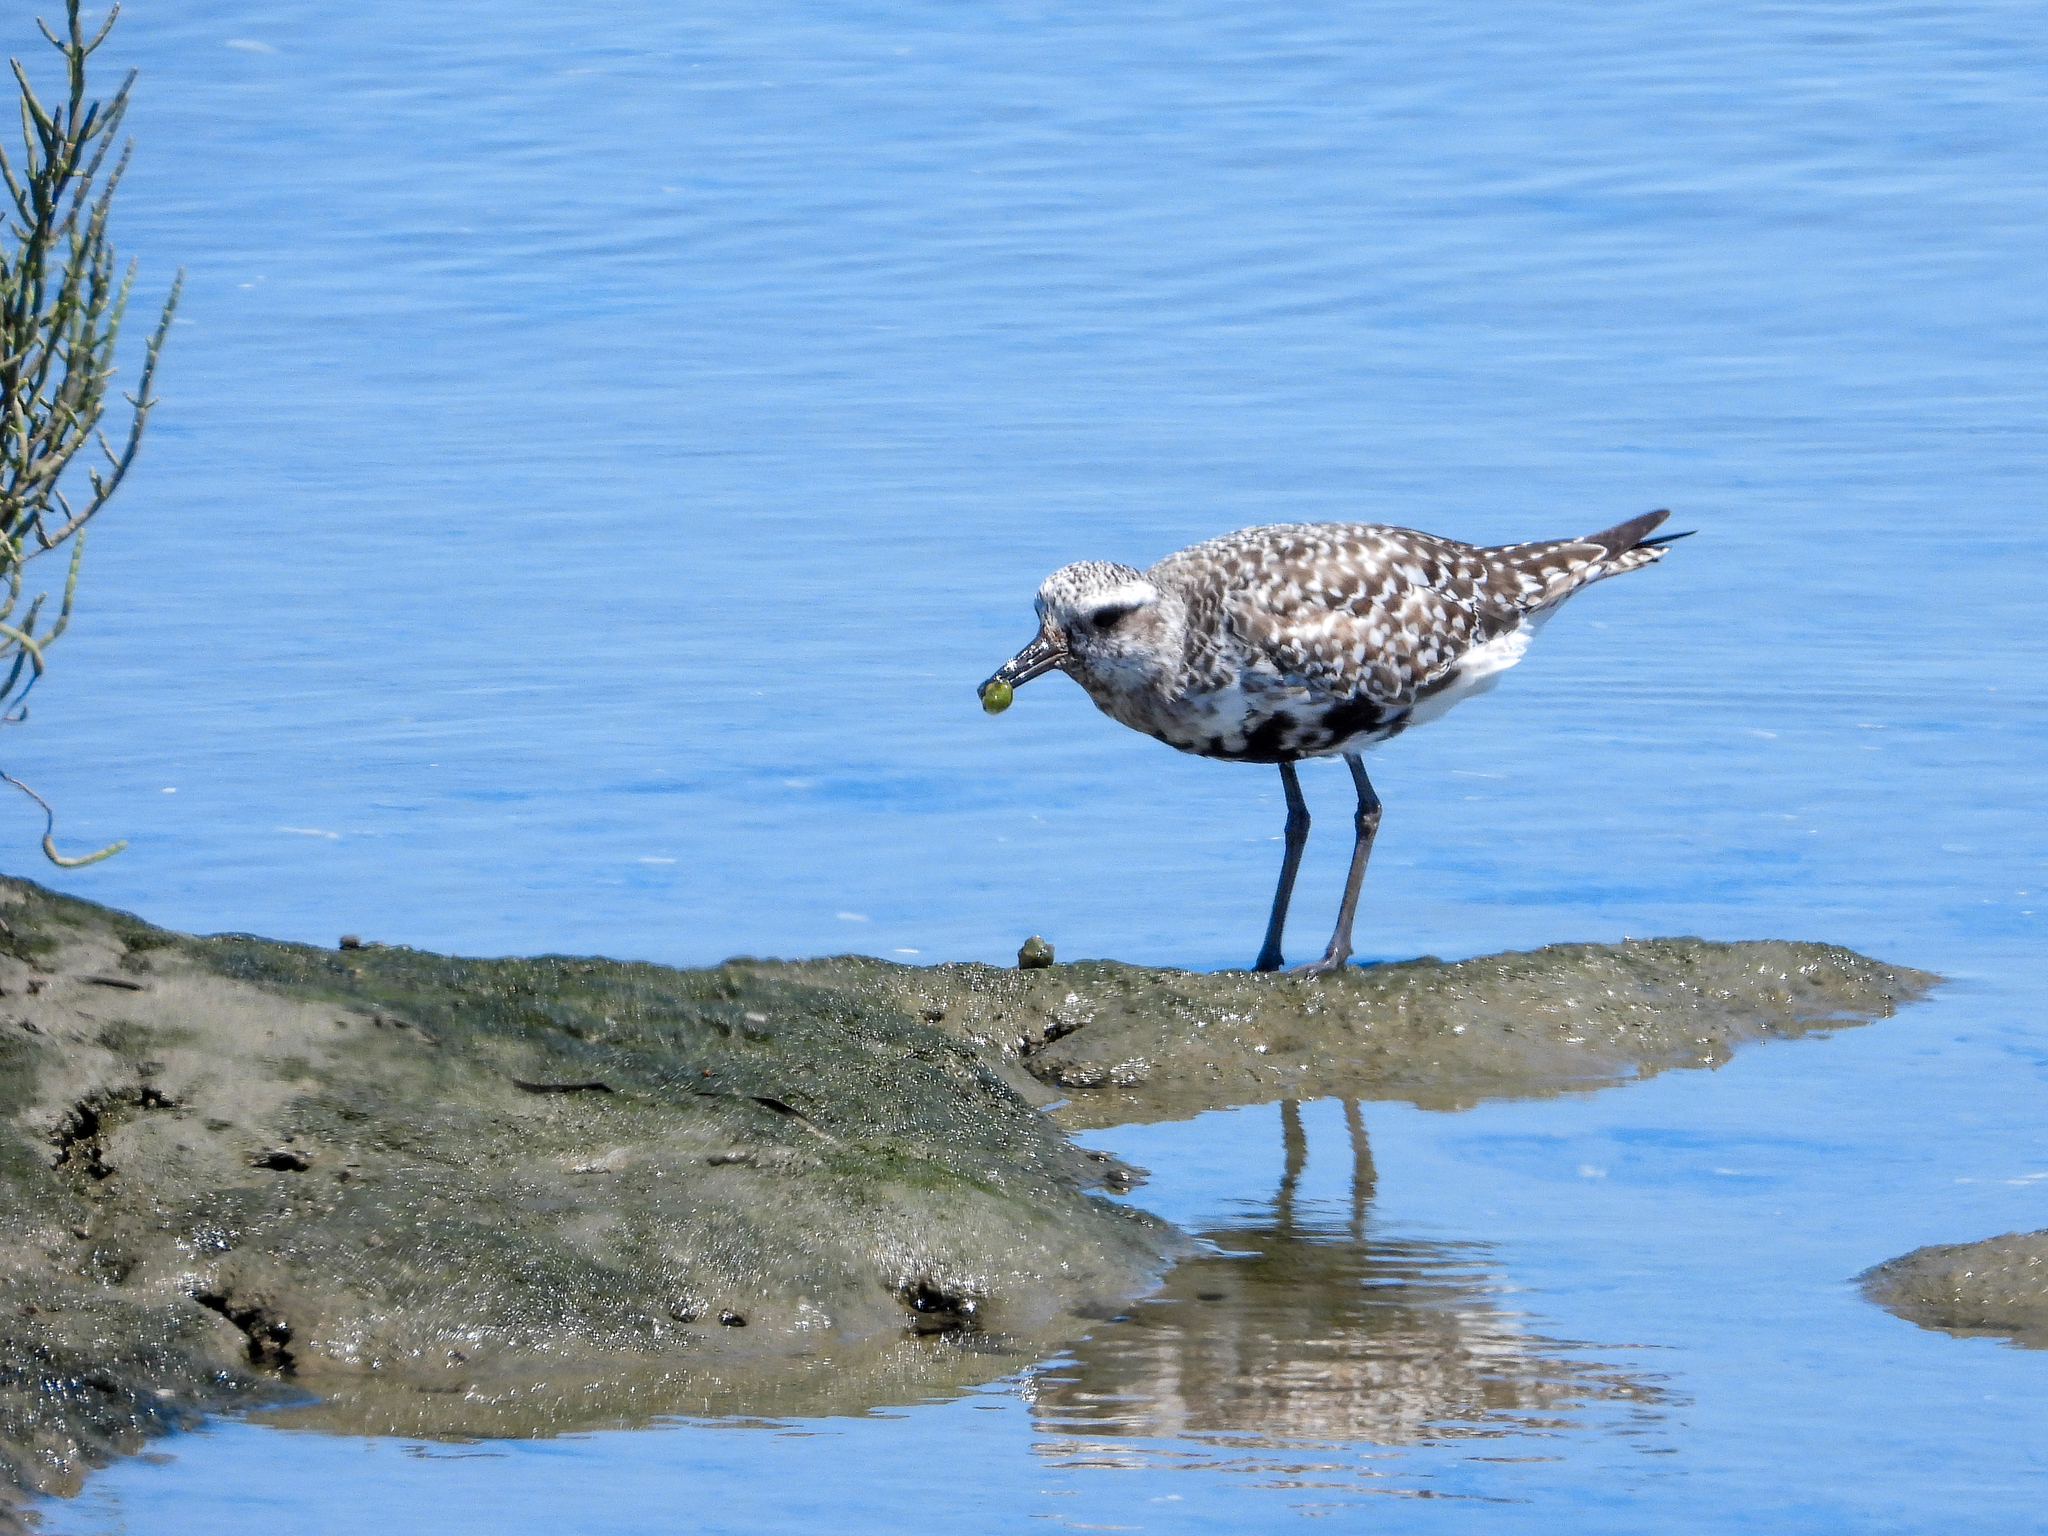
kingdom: Animalia
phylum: Chordata
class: Aves
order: Charadriiformes
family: Charadriidae
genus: Pluvialis
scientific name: Pluvialis squatarola
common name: Grey plover
